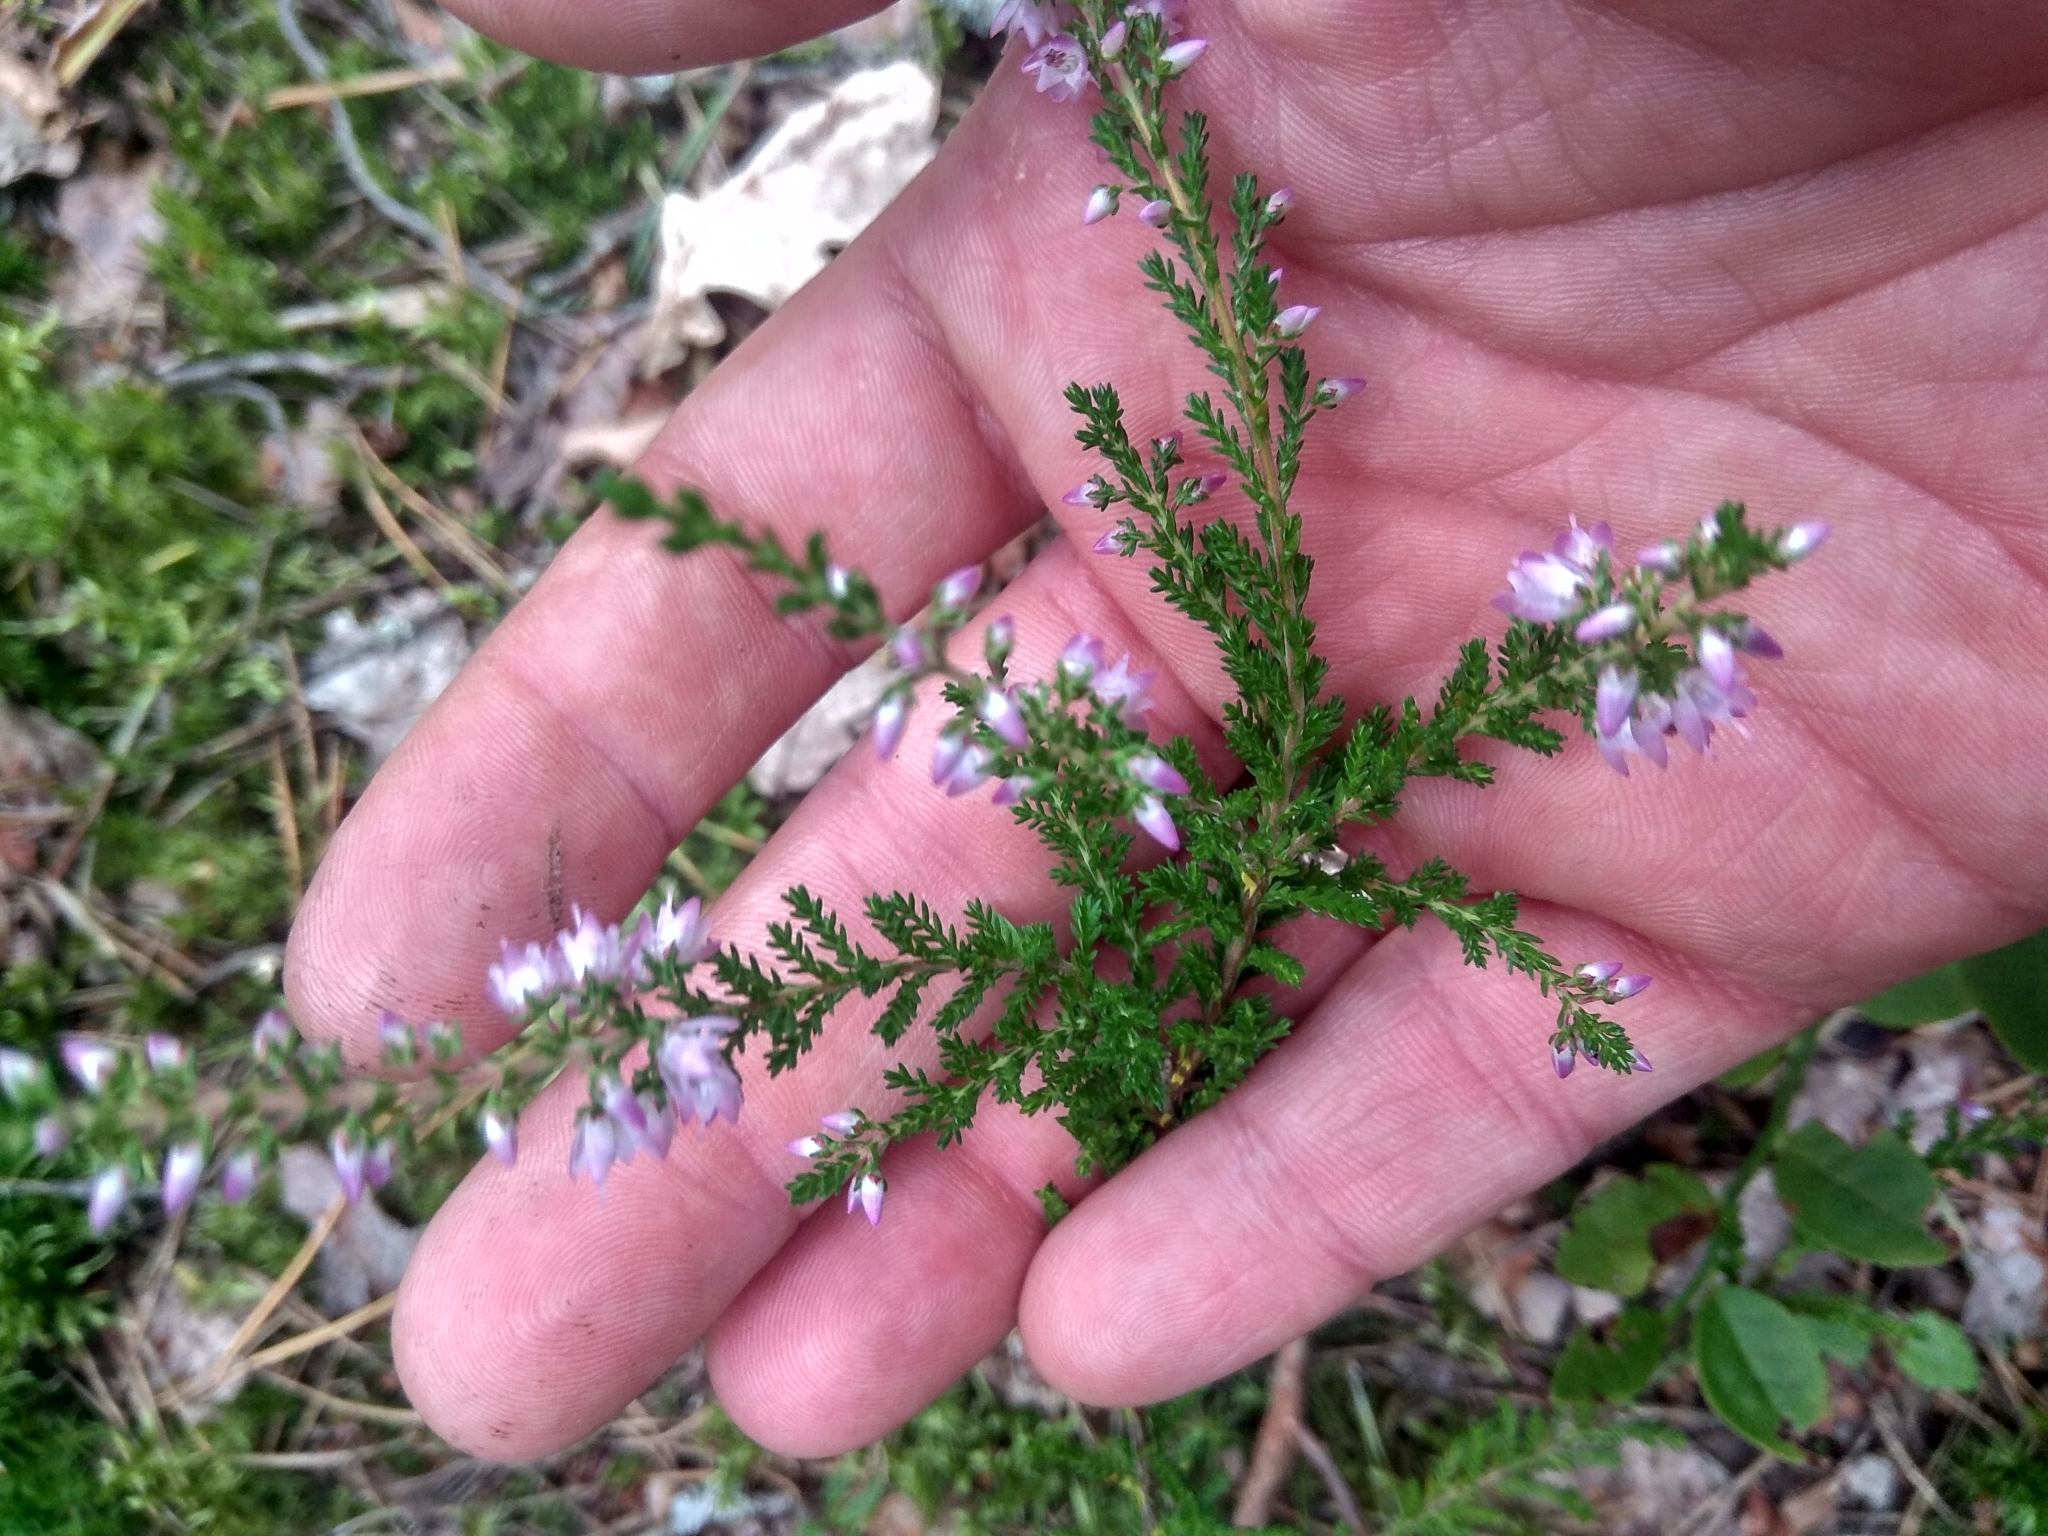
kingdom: Plantae
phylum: Tracheophyta
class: Magnoliopsida
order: Ericales
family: Ericaceae
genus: Calluna
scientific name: Calluna vulgaris
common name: Heather
